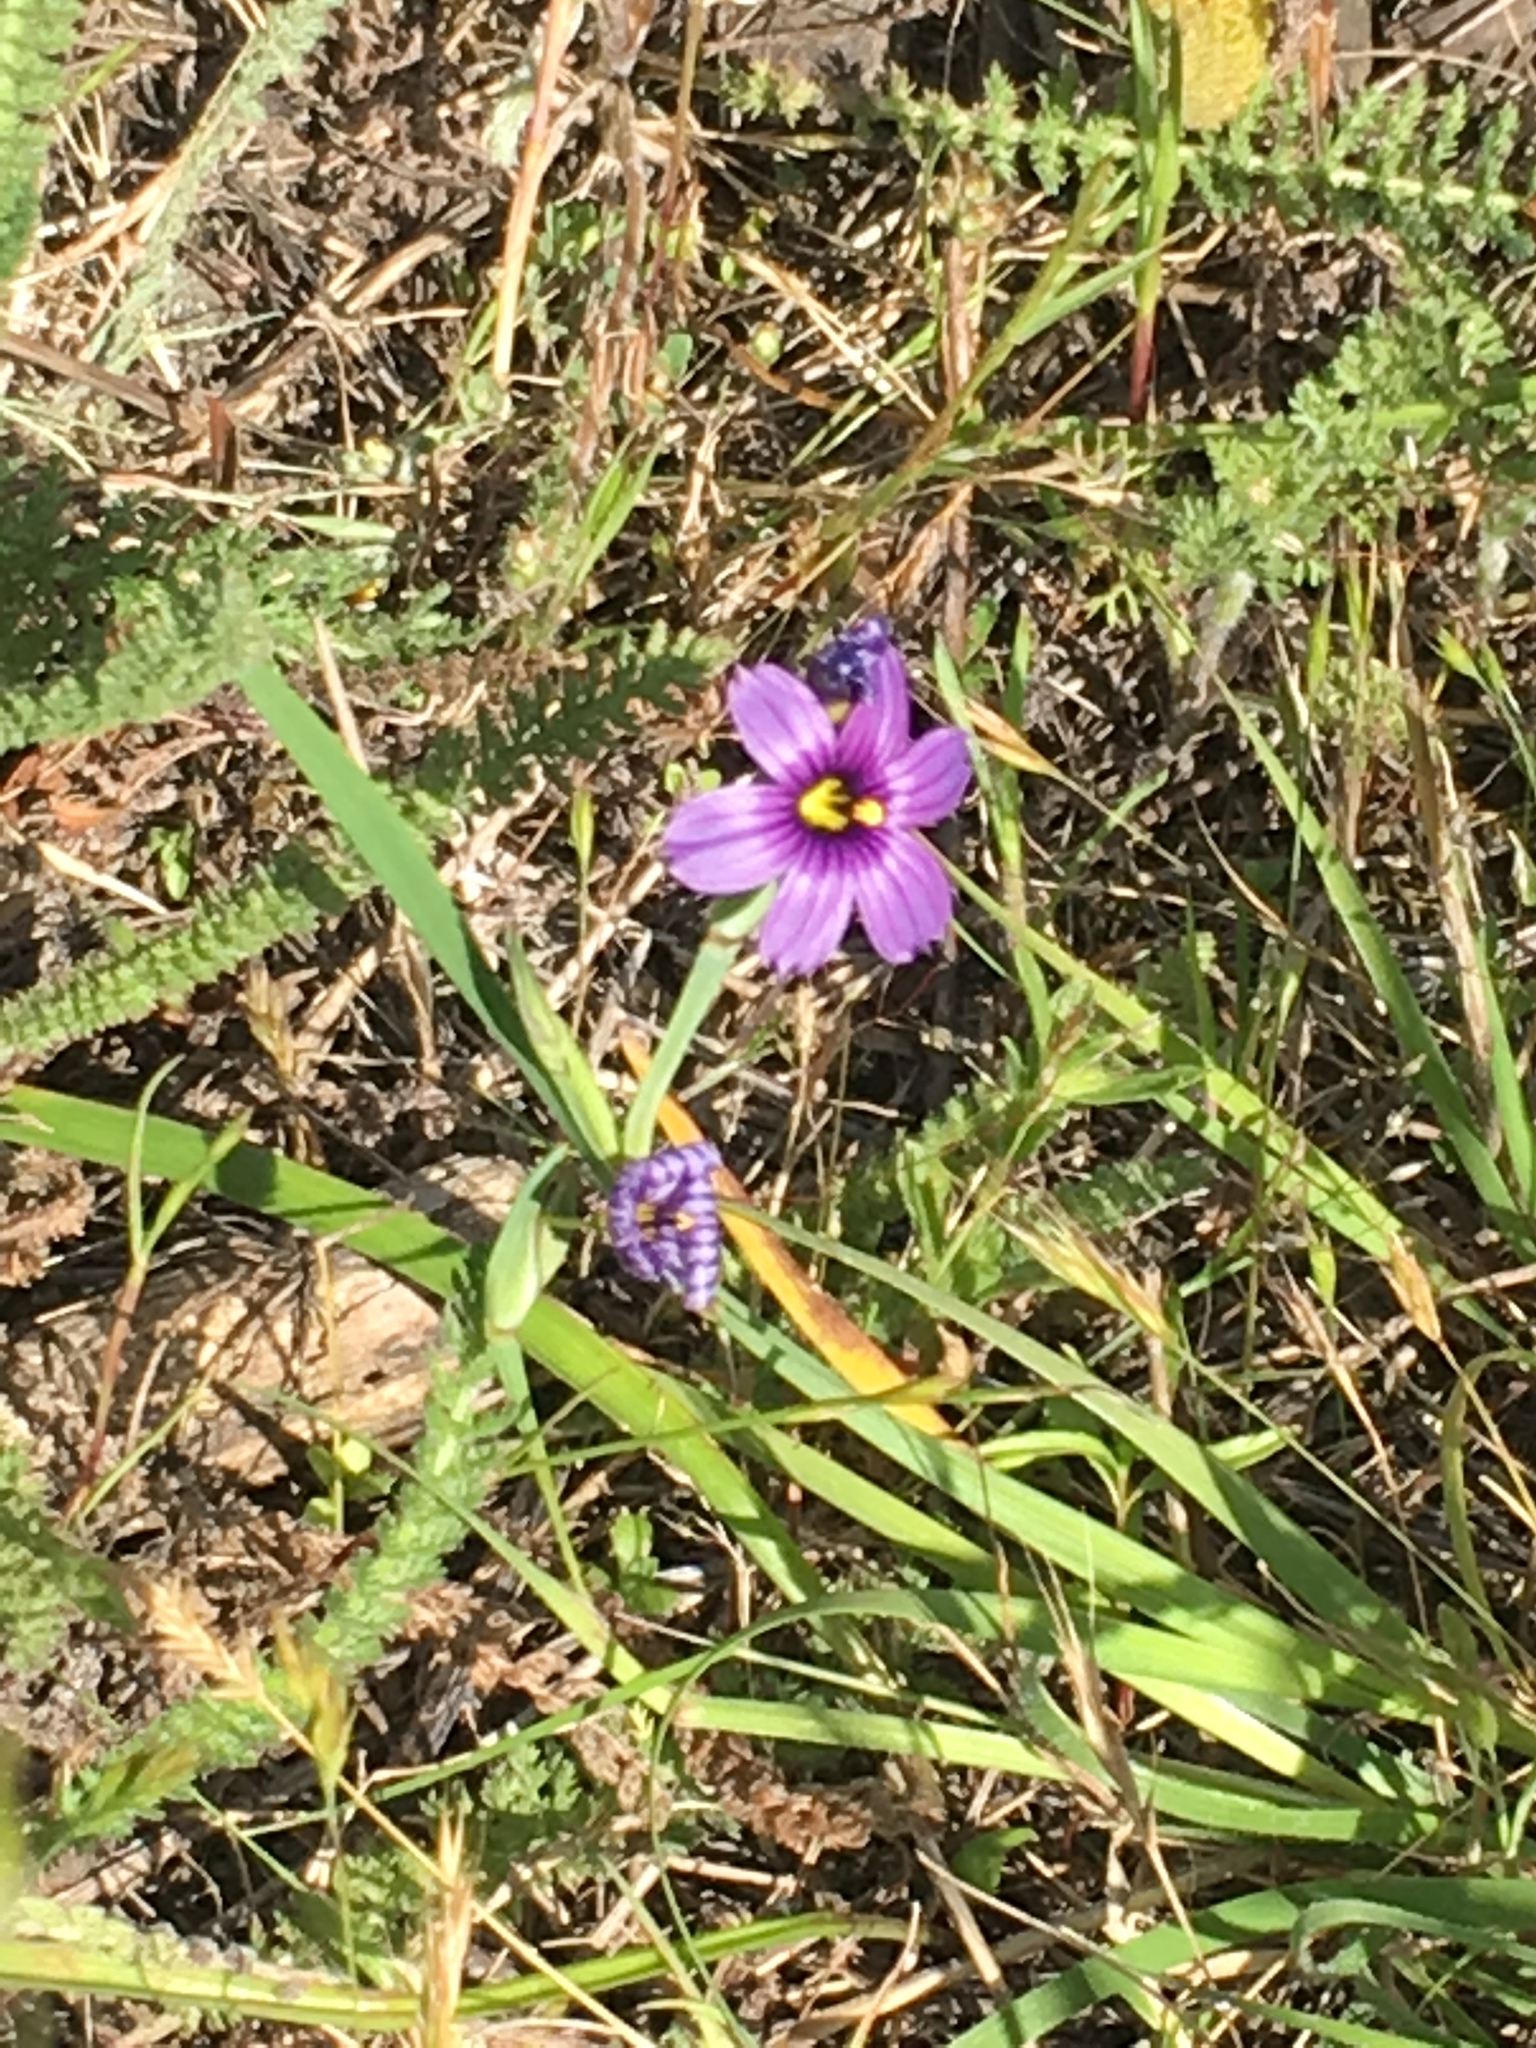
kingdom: Plantae
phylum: Tracheophyta
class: Liliopsida
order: Asparagales
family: Iridaceae
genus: Sisyrinchium
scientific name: Sisyrinchium bellum
